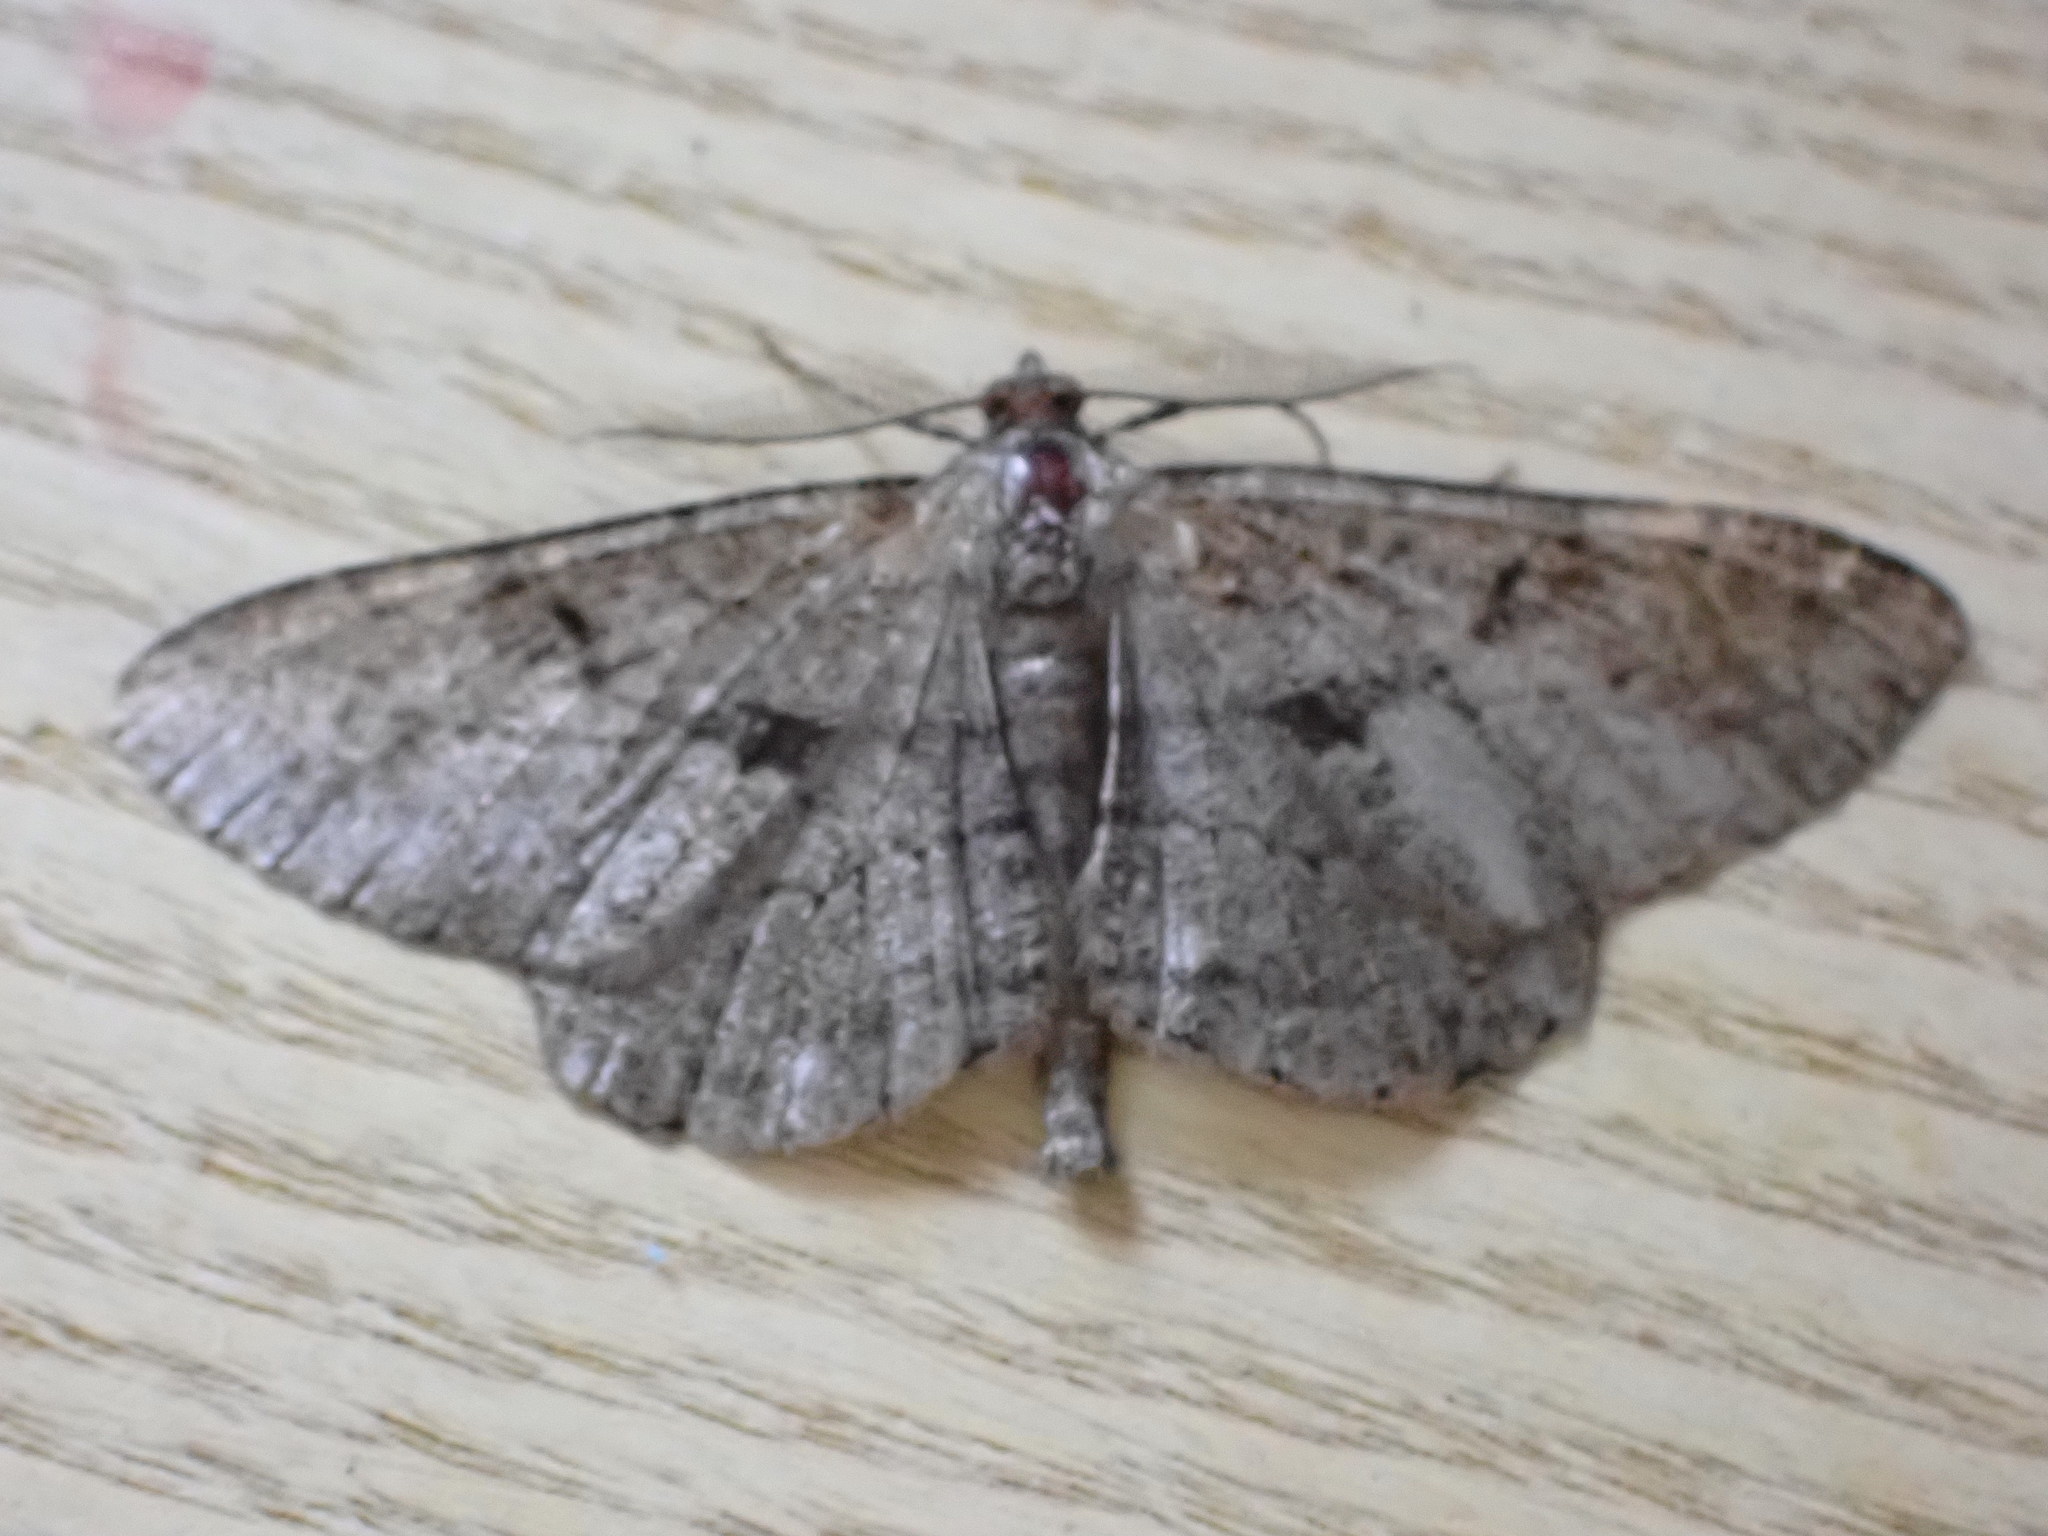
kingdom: Animalia
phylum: Arthropoda
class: Insecta
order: Lepidoptera
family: Geometridae
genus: Peribatodes
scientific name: Peribatodes rhomboidaria
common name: Willow beauty
